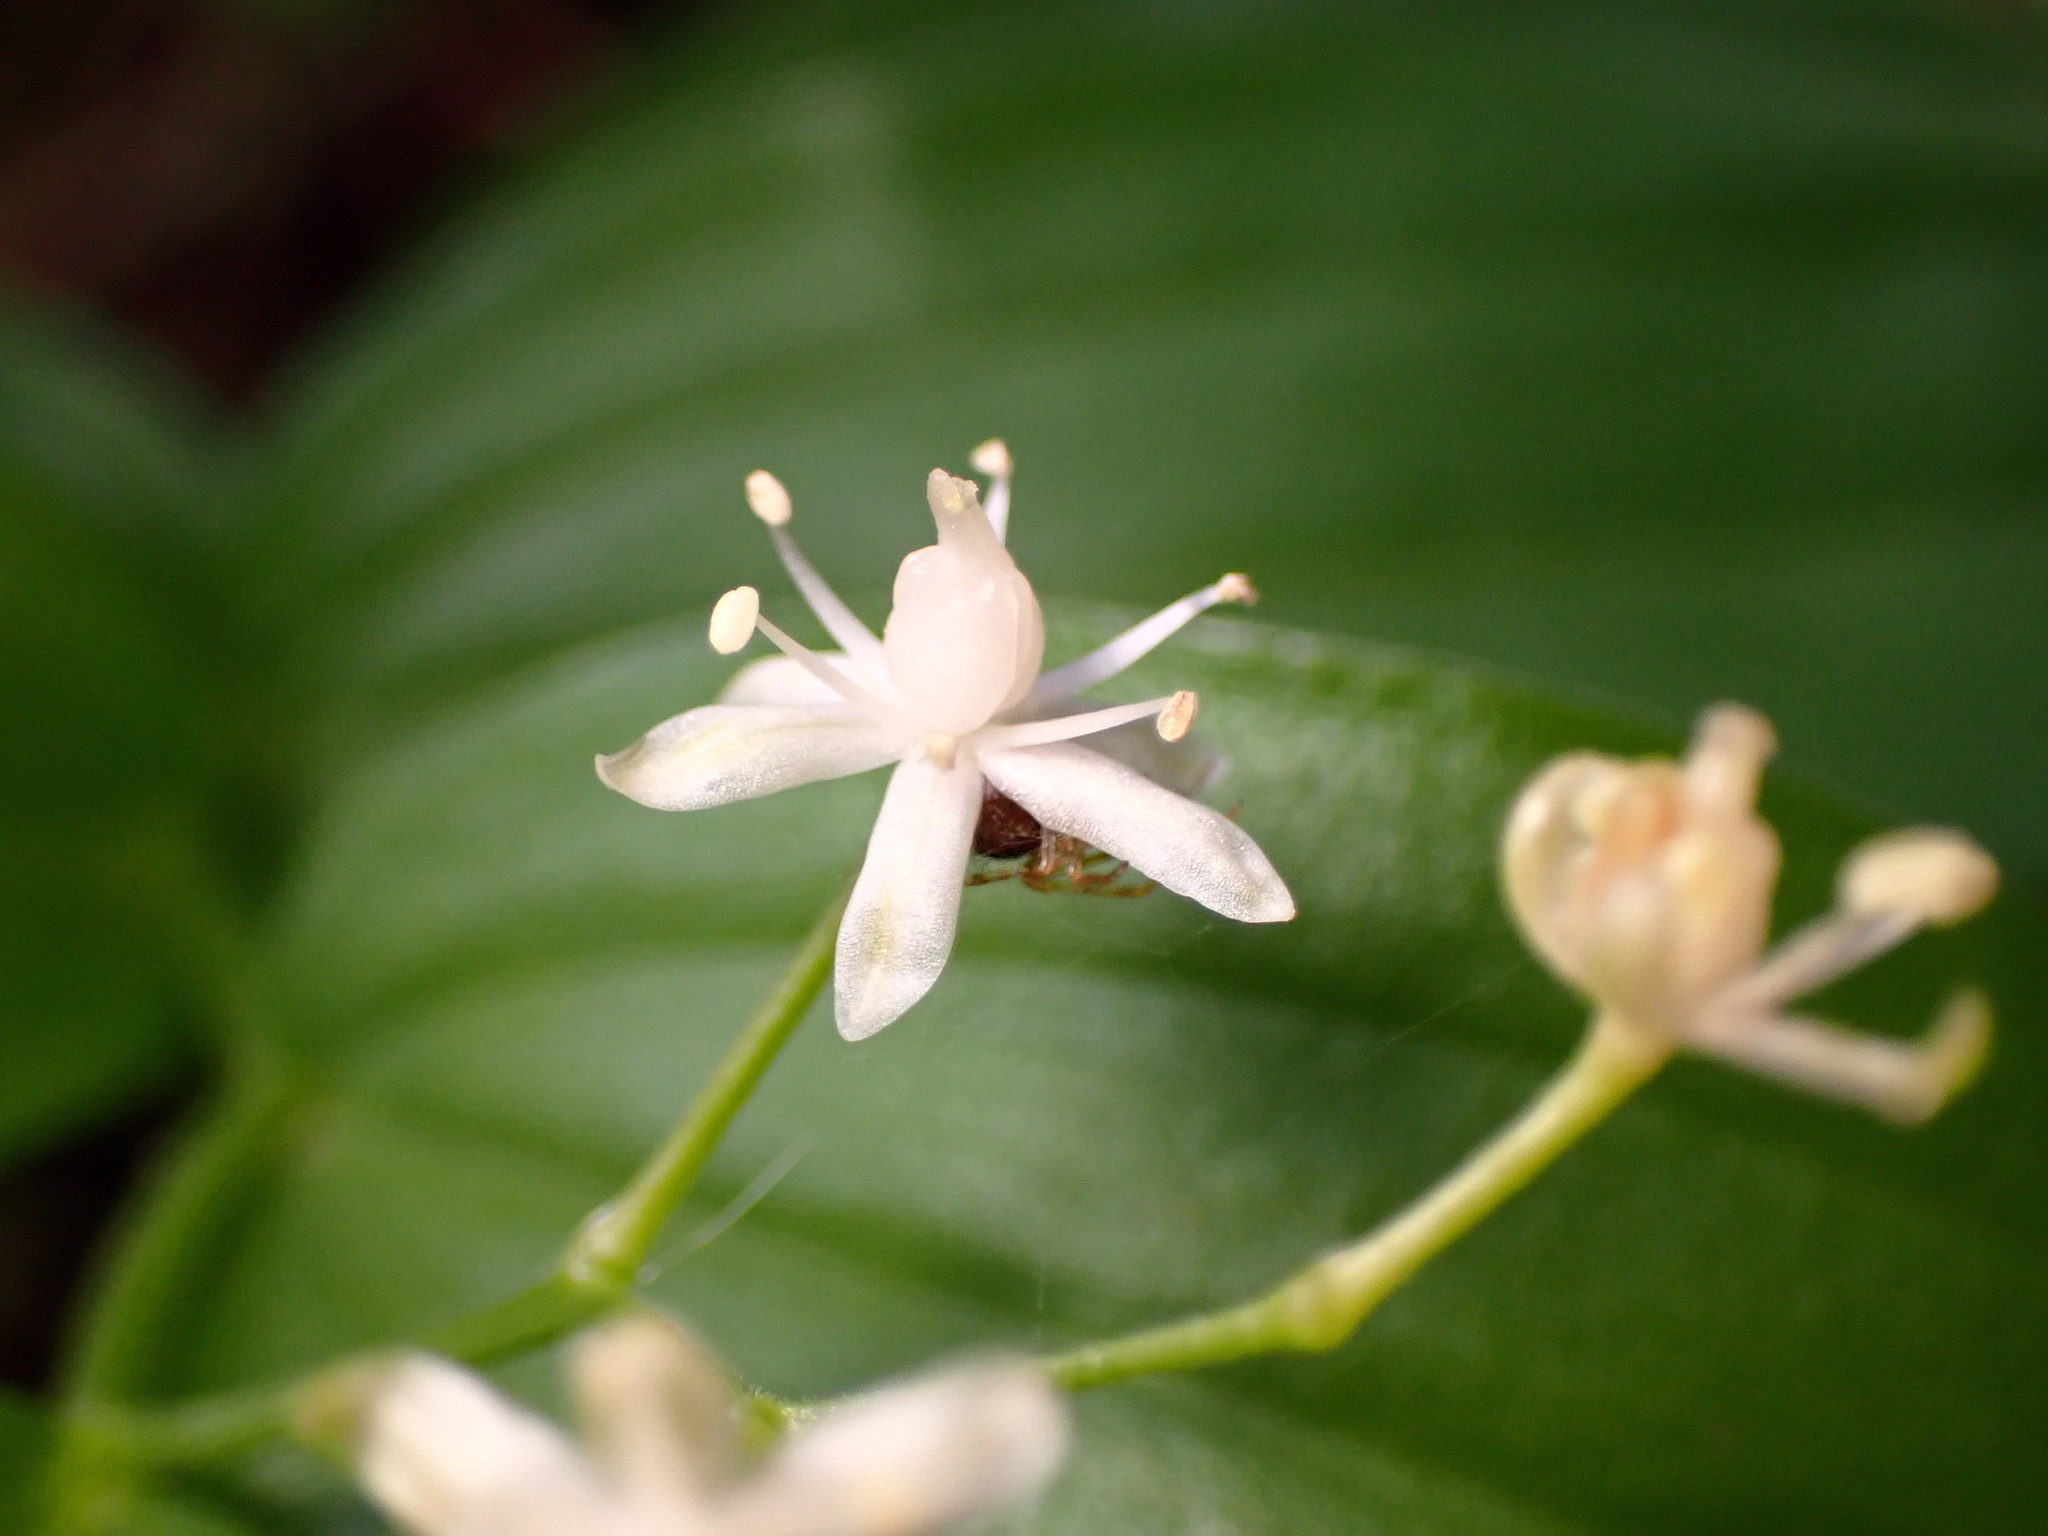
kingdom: Plantae
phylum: Tracheophyta
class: Liliopsida
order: Asparagales
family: Asparagaceae
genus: Maianthemum
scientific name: Maianthemum stellatum
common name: Little false solomon's seal
